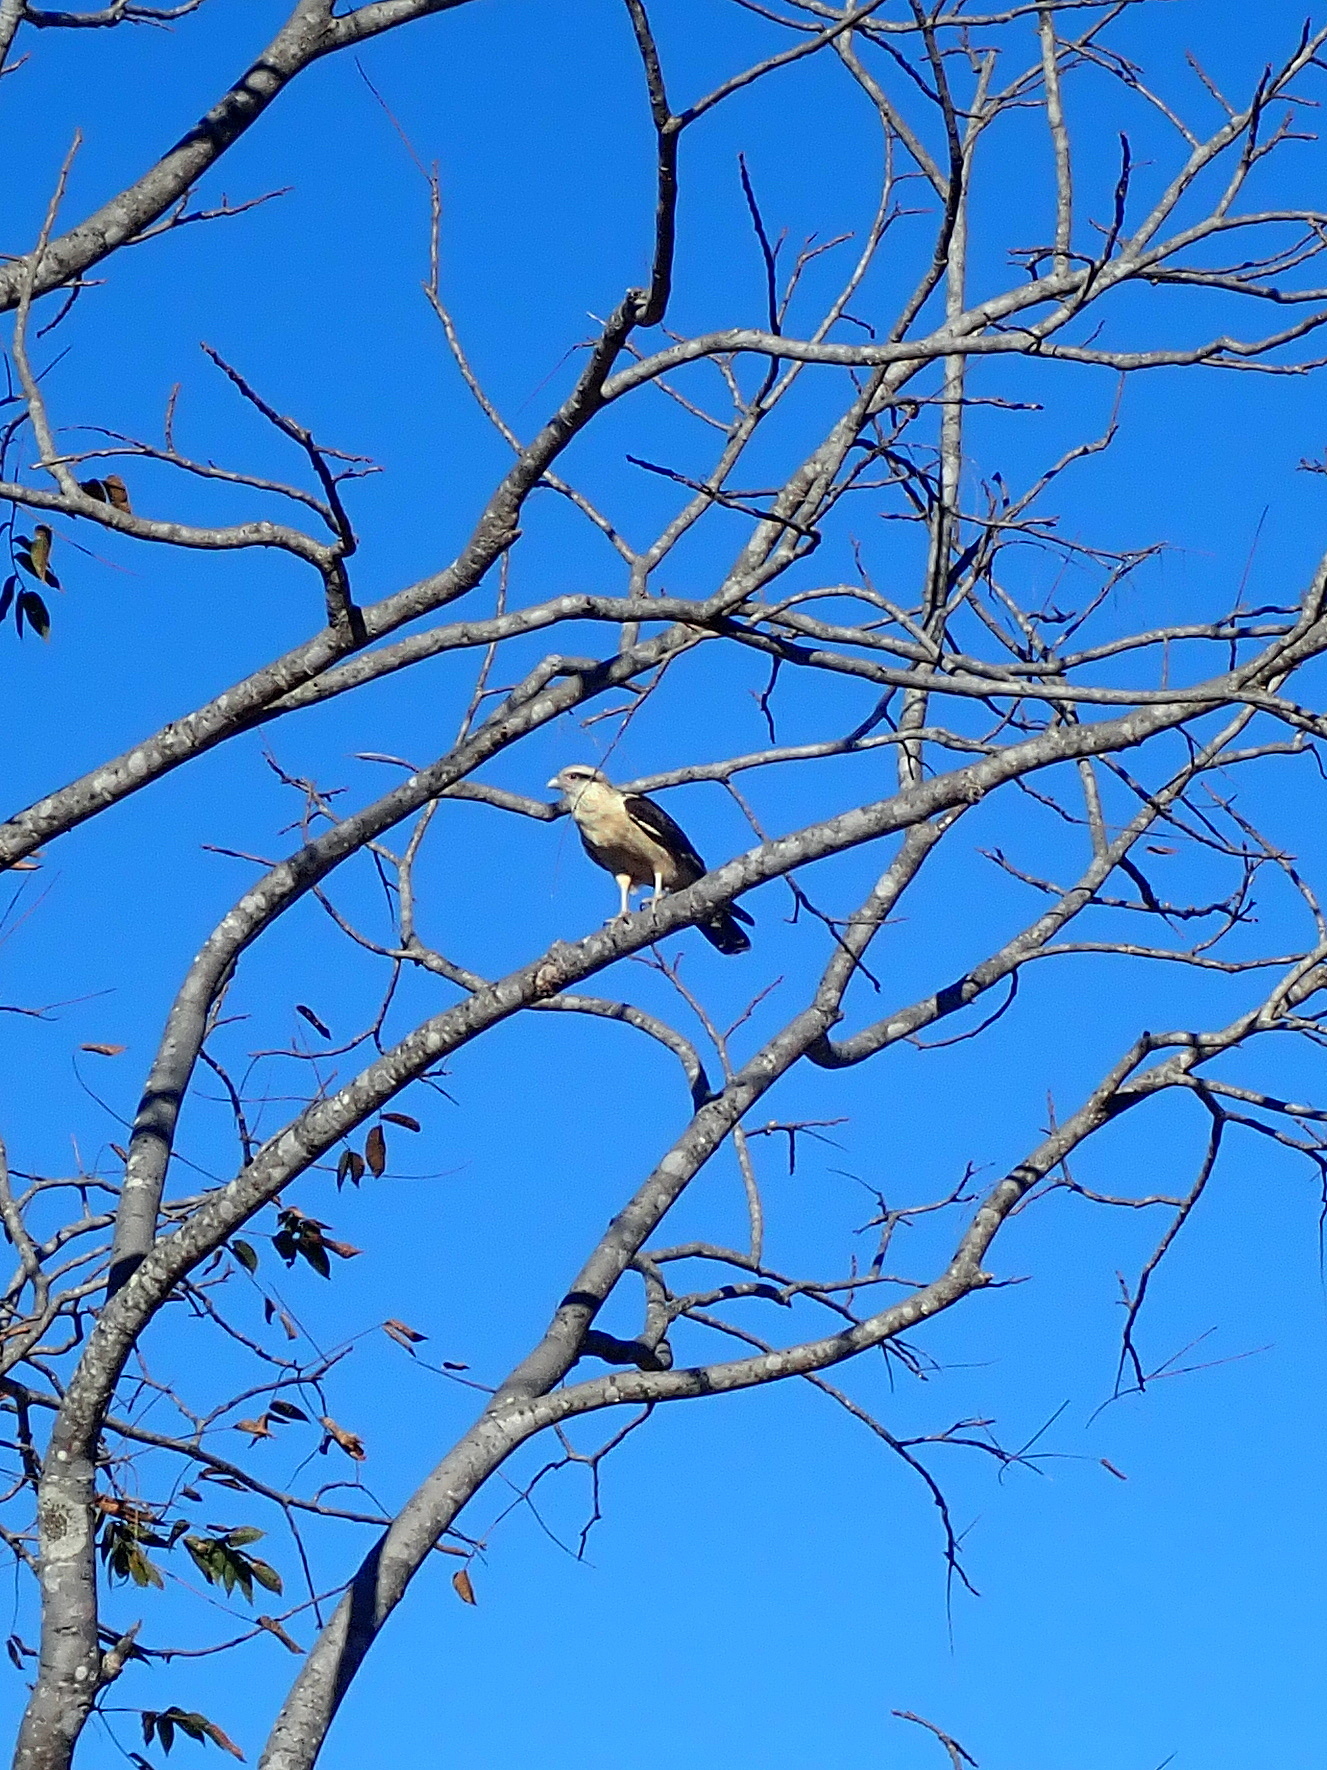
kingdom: Animalia
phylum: Chordata
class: Aves
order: Falconiformes
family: Falconidae
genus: Daptrius
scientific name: Daptrius
